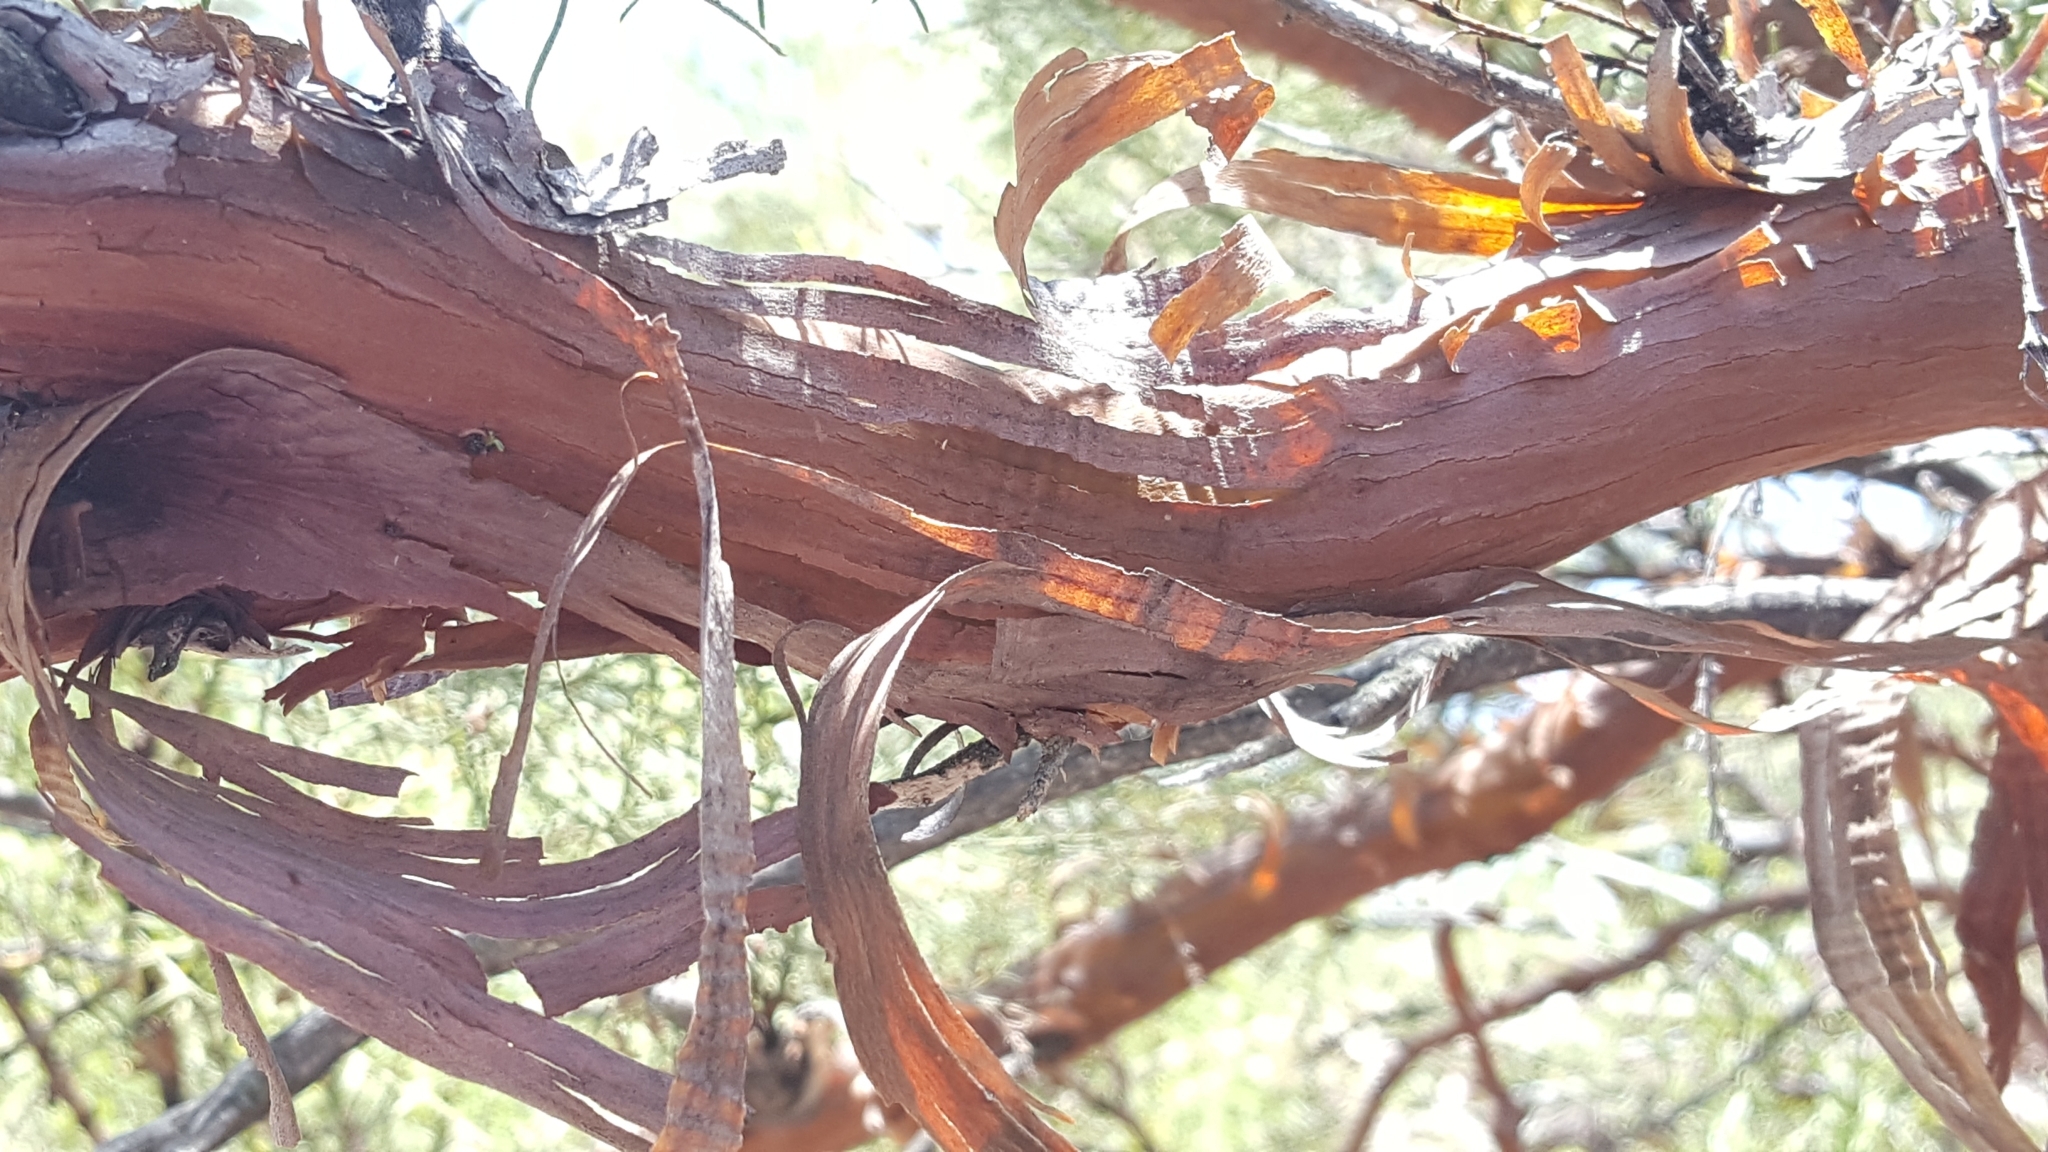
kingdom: Plantae
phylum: Tracheophyta
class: Magnoliopsida
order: Rosales
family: Rosaceae
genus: Adenostoma
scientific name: Adenostoma sparsifolium
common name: Red shank
